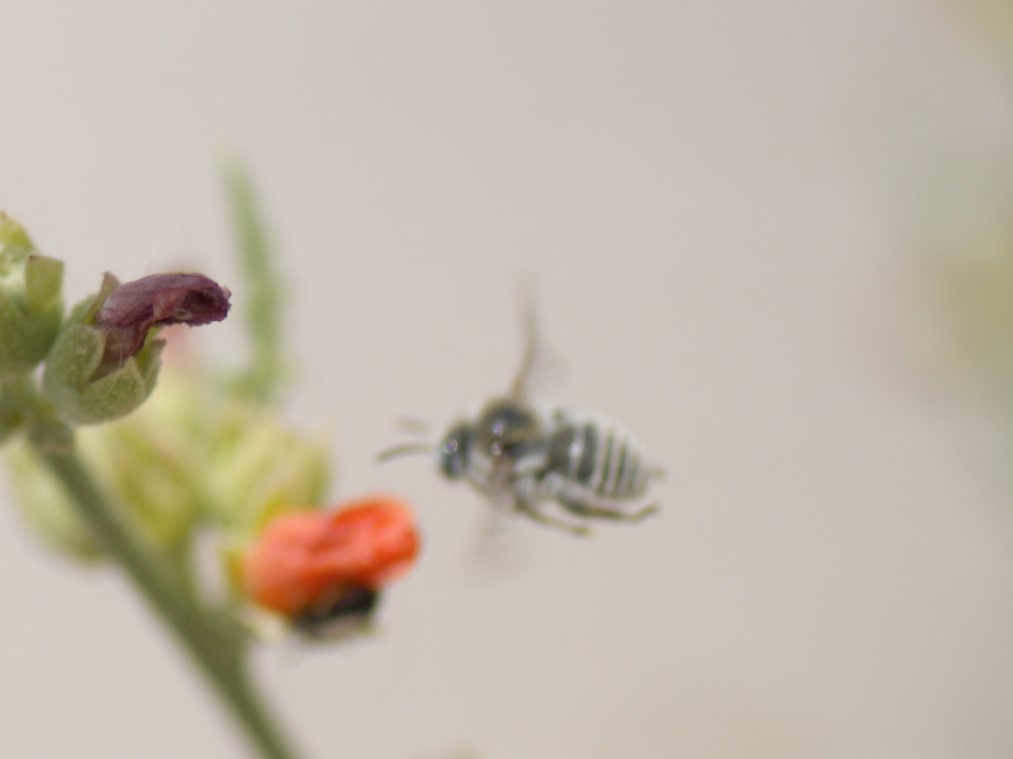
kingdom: Animalia
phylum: Arthropoda
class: Insecta
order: Hymenoptera
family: Apidae
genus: Diadasia
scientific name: Diadasia
